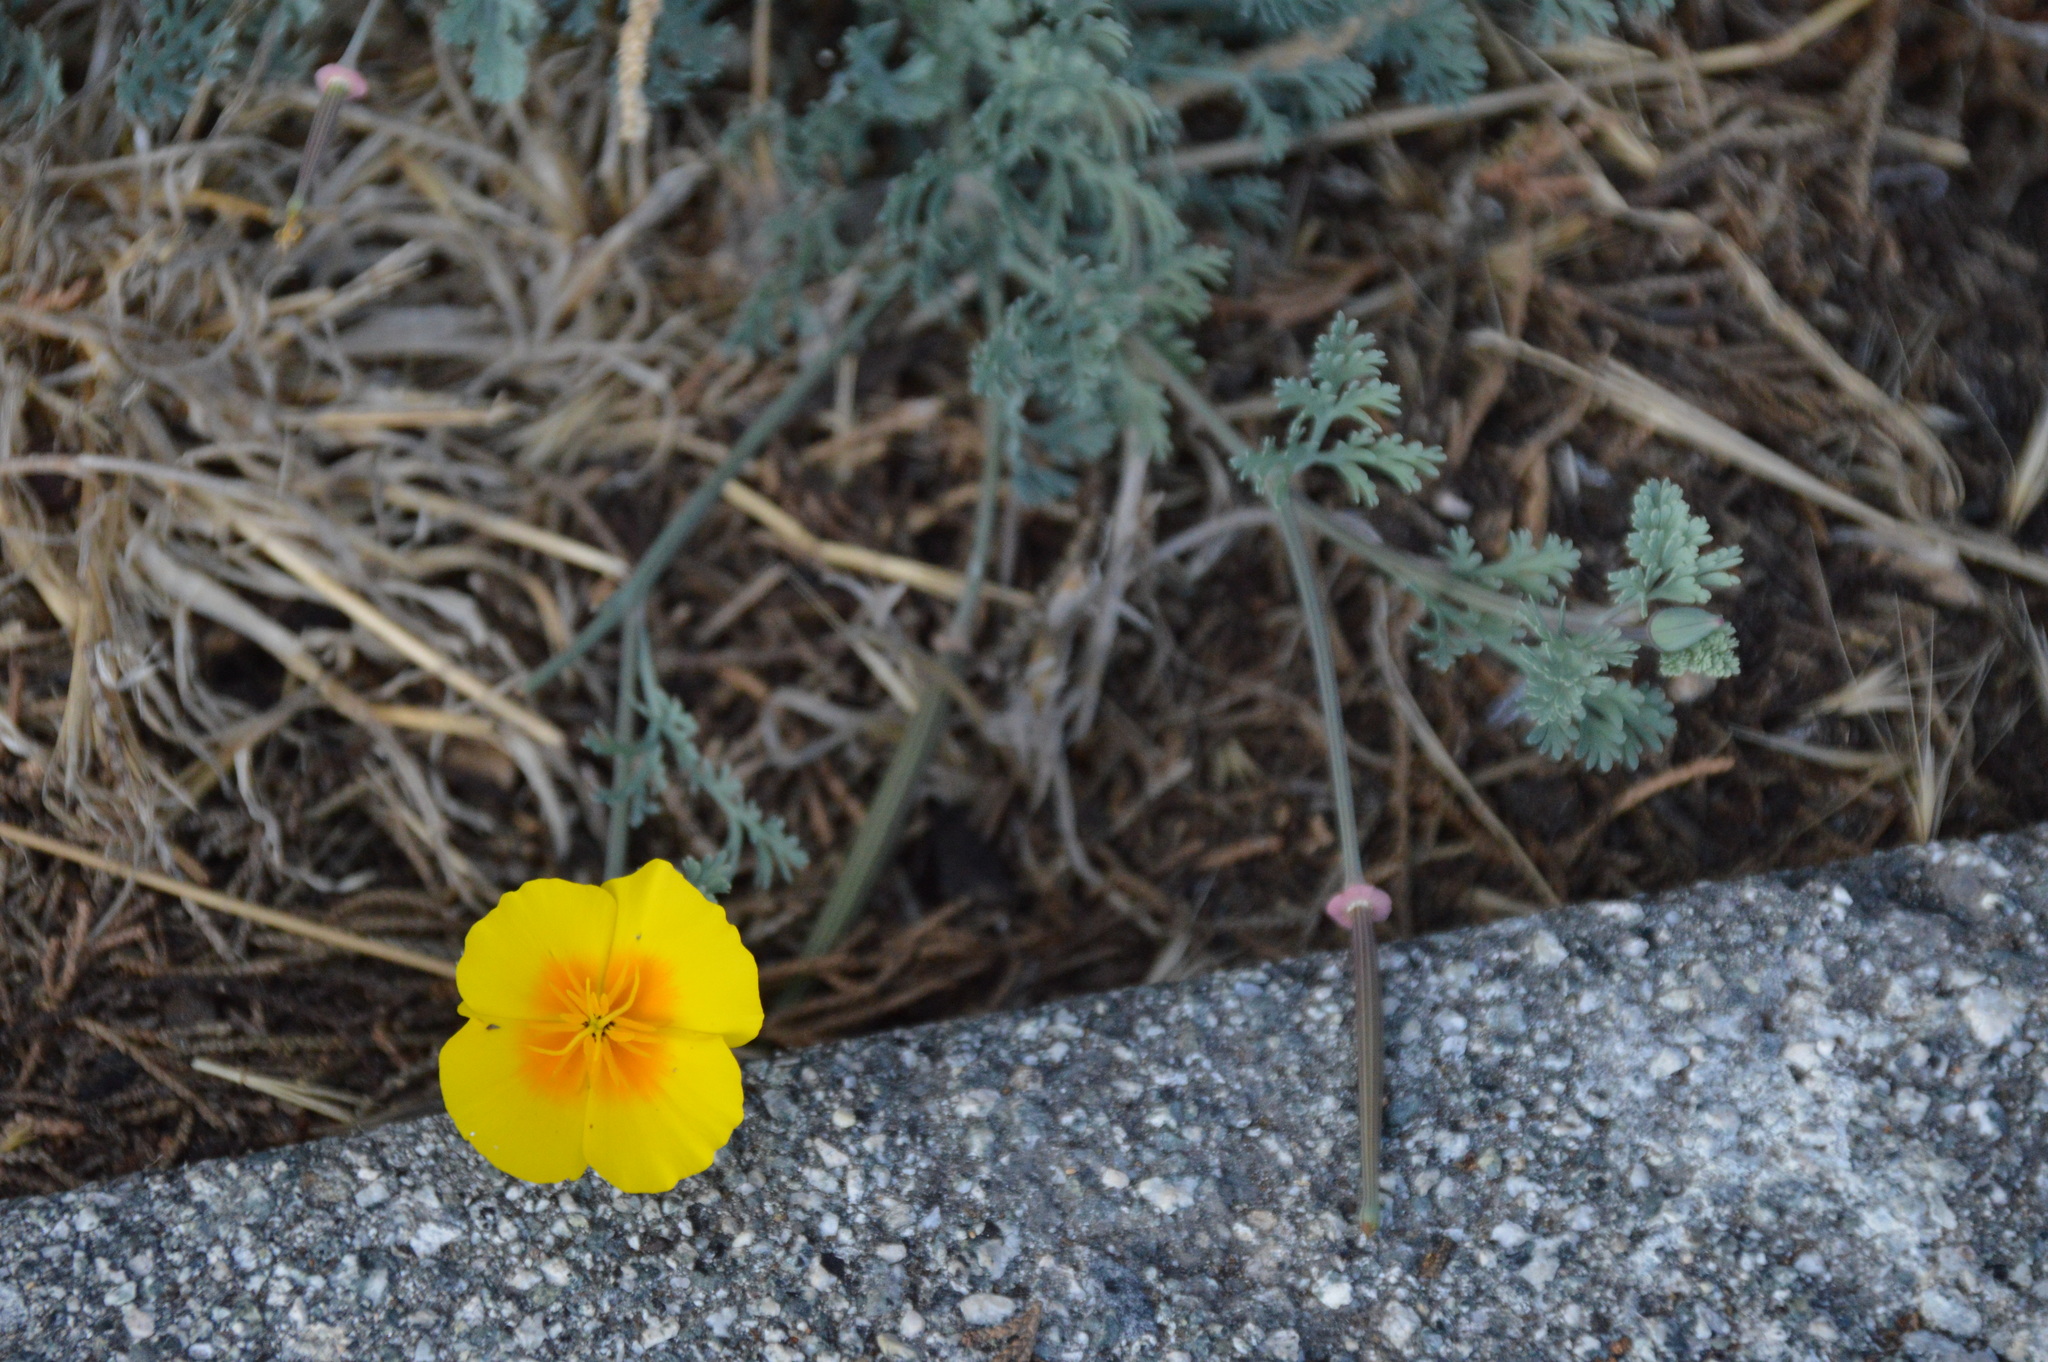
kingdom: Plantae
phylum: Tracheophyta
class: Magnoliopsida
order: Ranunculales
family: Papaveraceae
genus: Eschscholzia
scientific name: Eschscholzia californica
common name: California poppy
